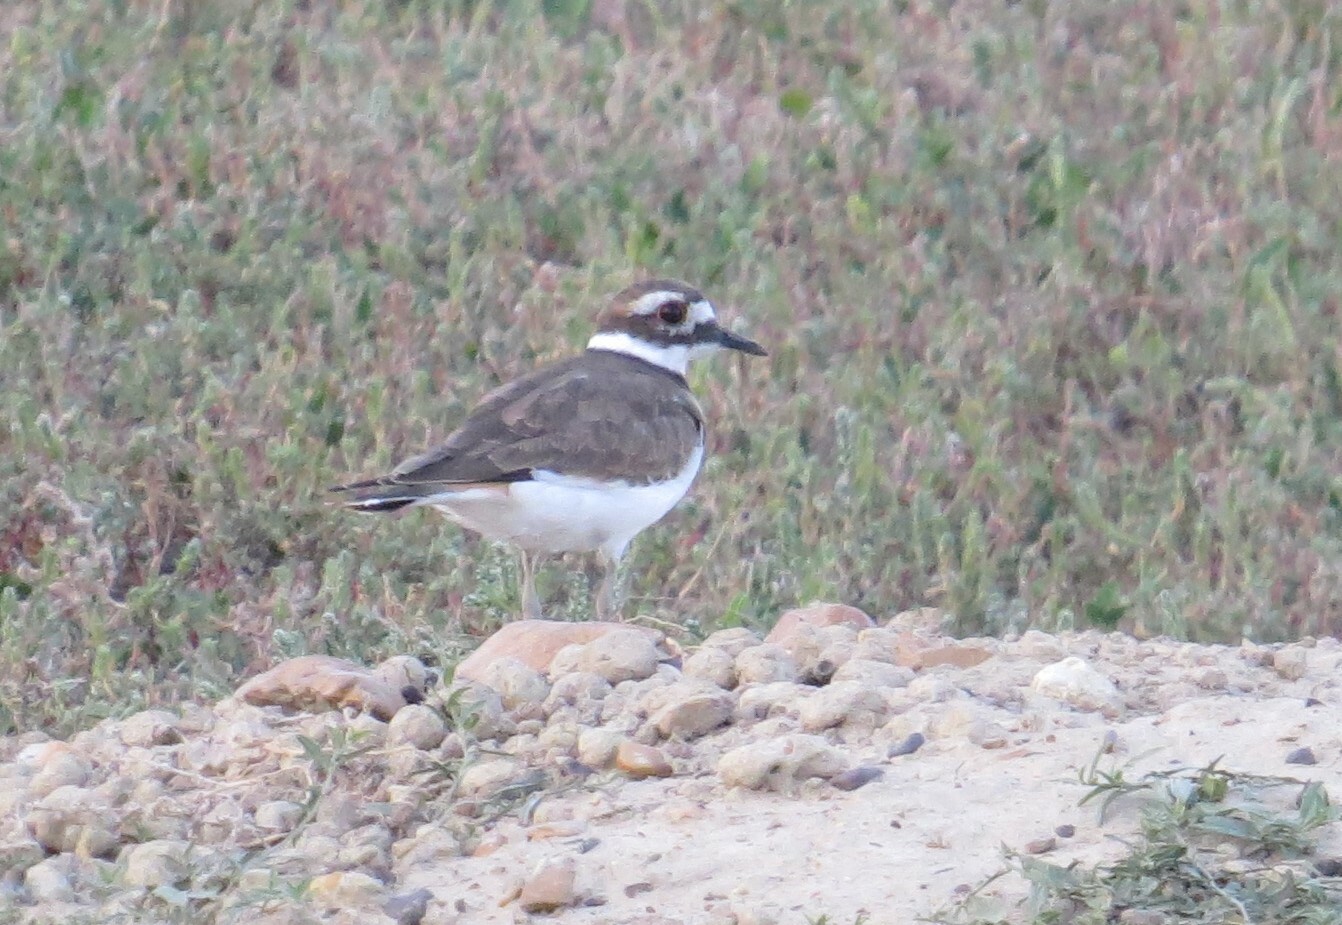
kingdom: Animalia
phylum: Chordata
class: Aves
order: Charadriiformes
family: Charadriidae
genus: Charadrius
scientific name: Charadrius vociferus
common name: Killdeer
